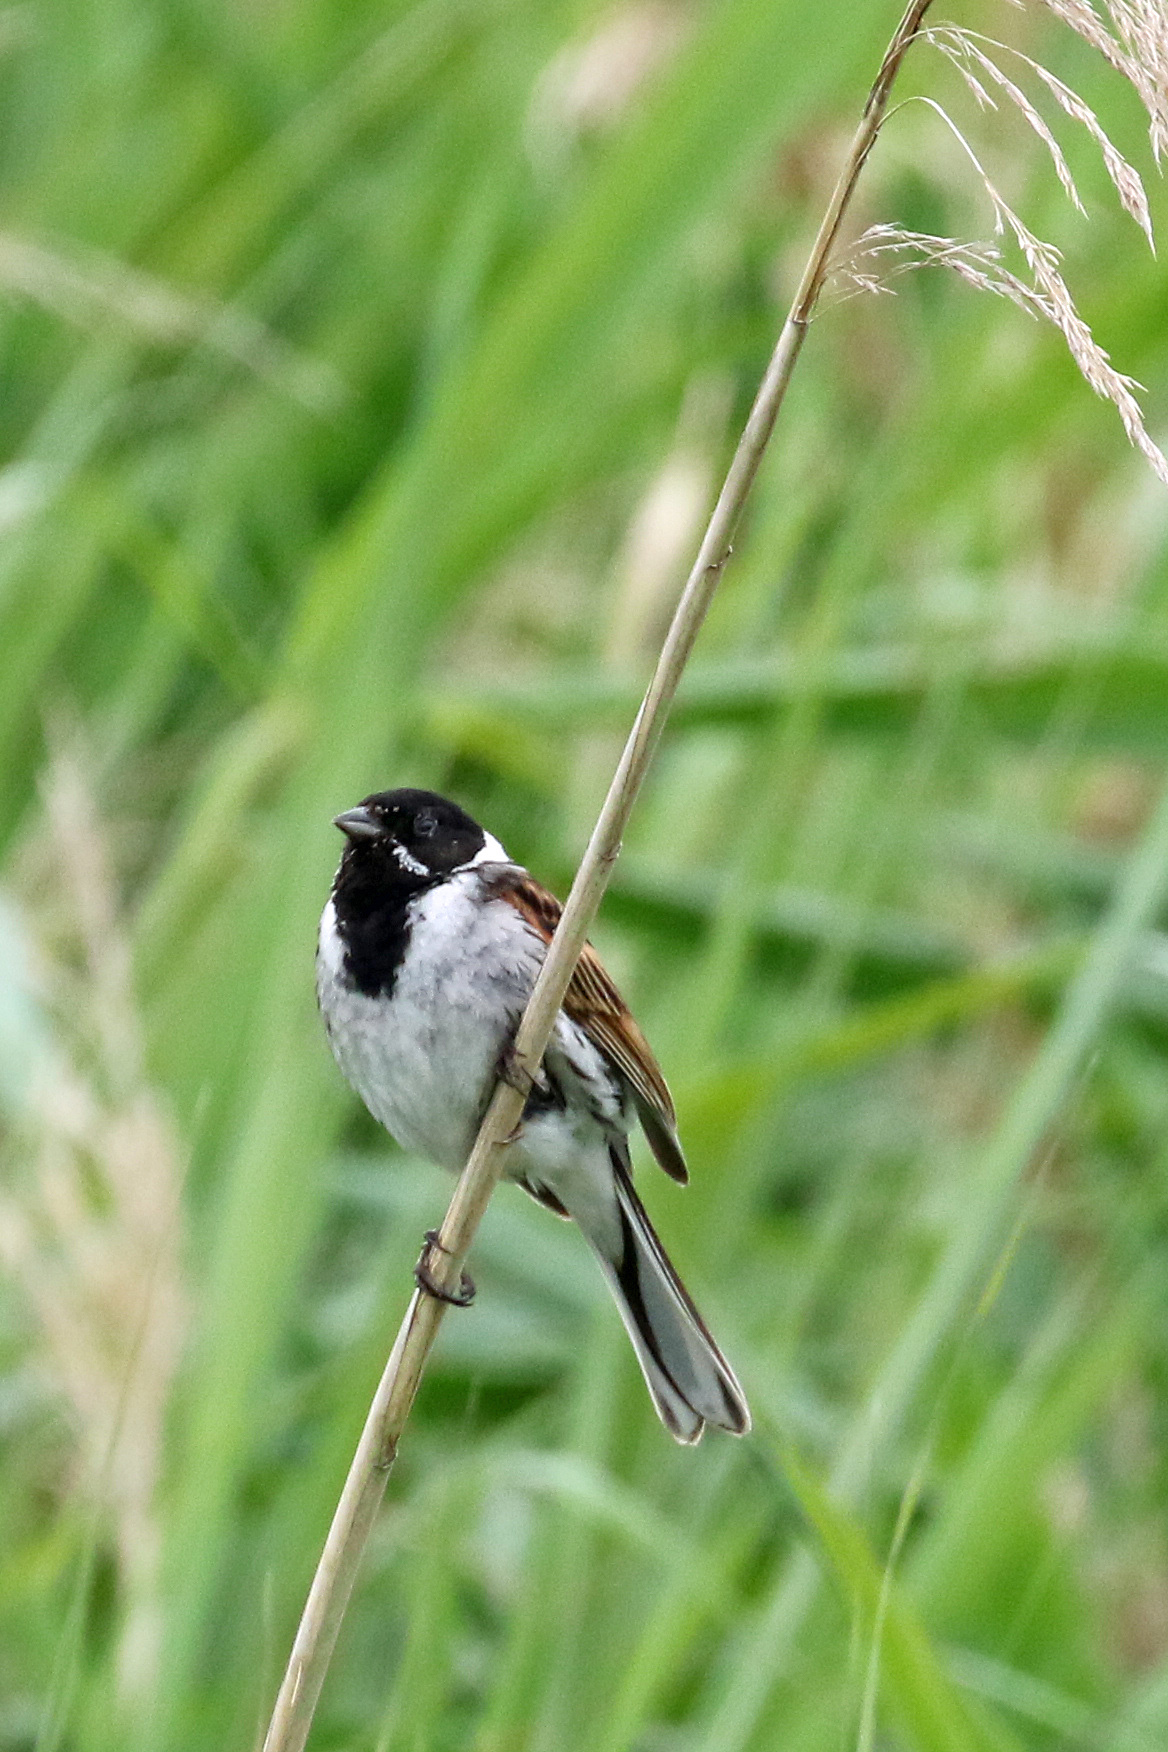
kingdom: Animalia
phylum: Chordata
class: Aves
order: Passeriformes
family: Emberizidae
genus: Emberiza
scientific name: Emberiza schoeniclus
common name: Reed bunting
